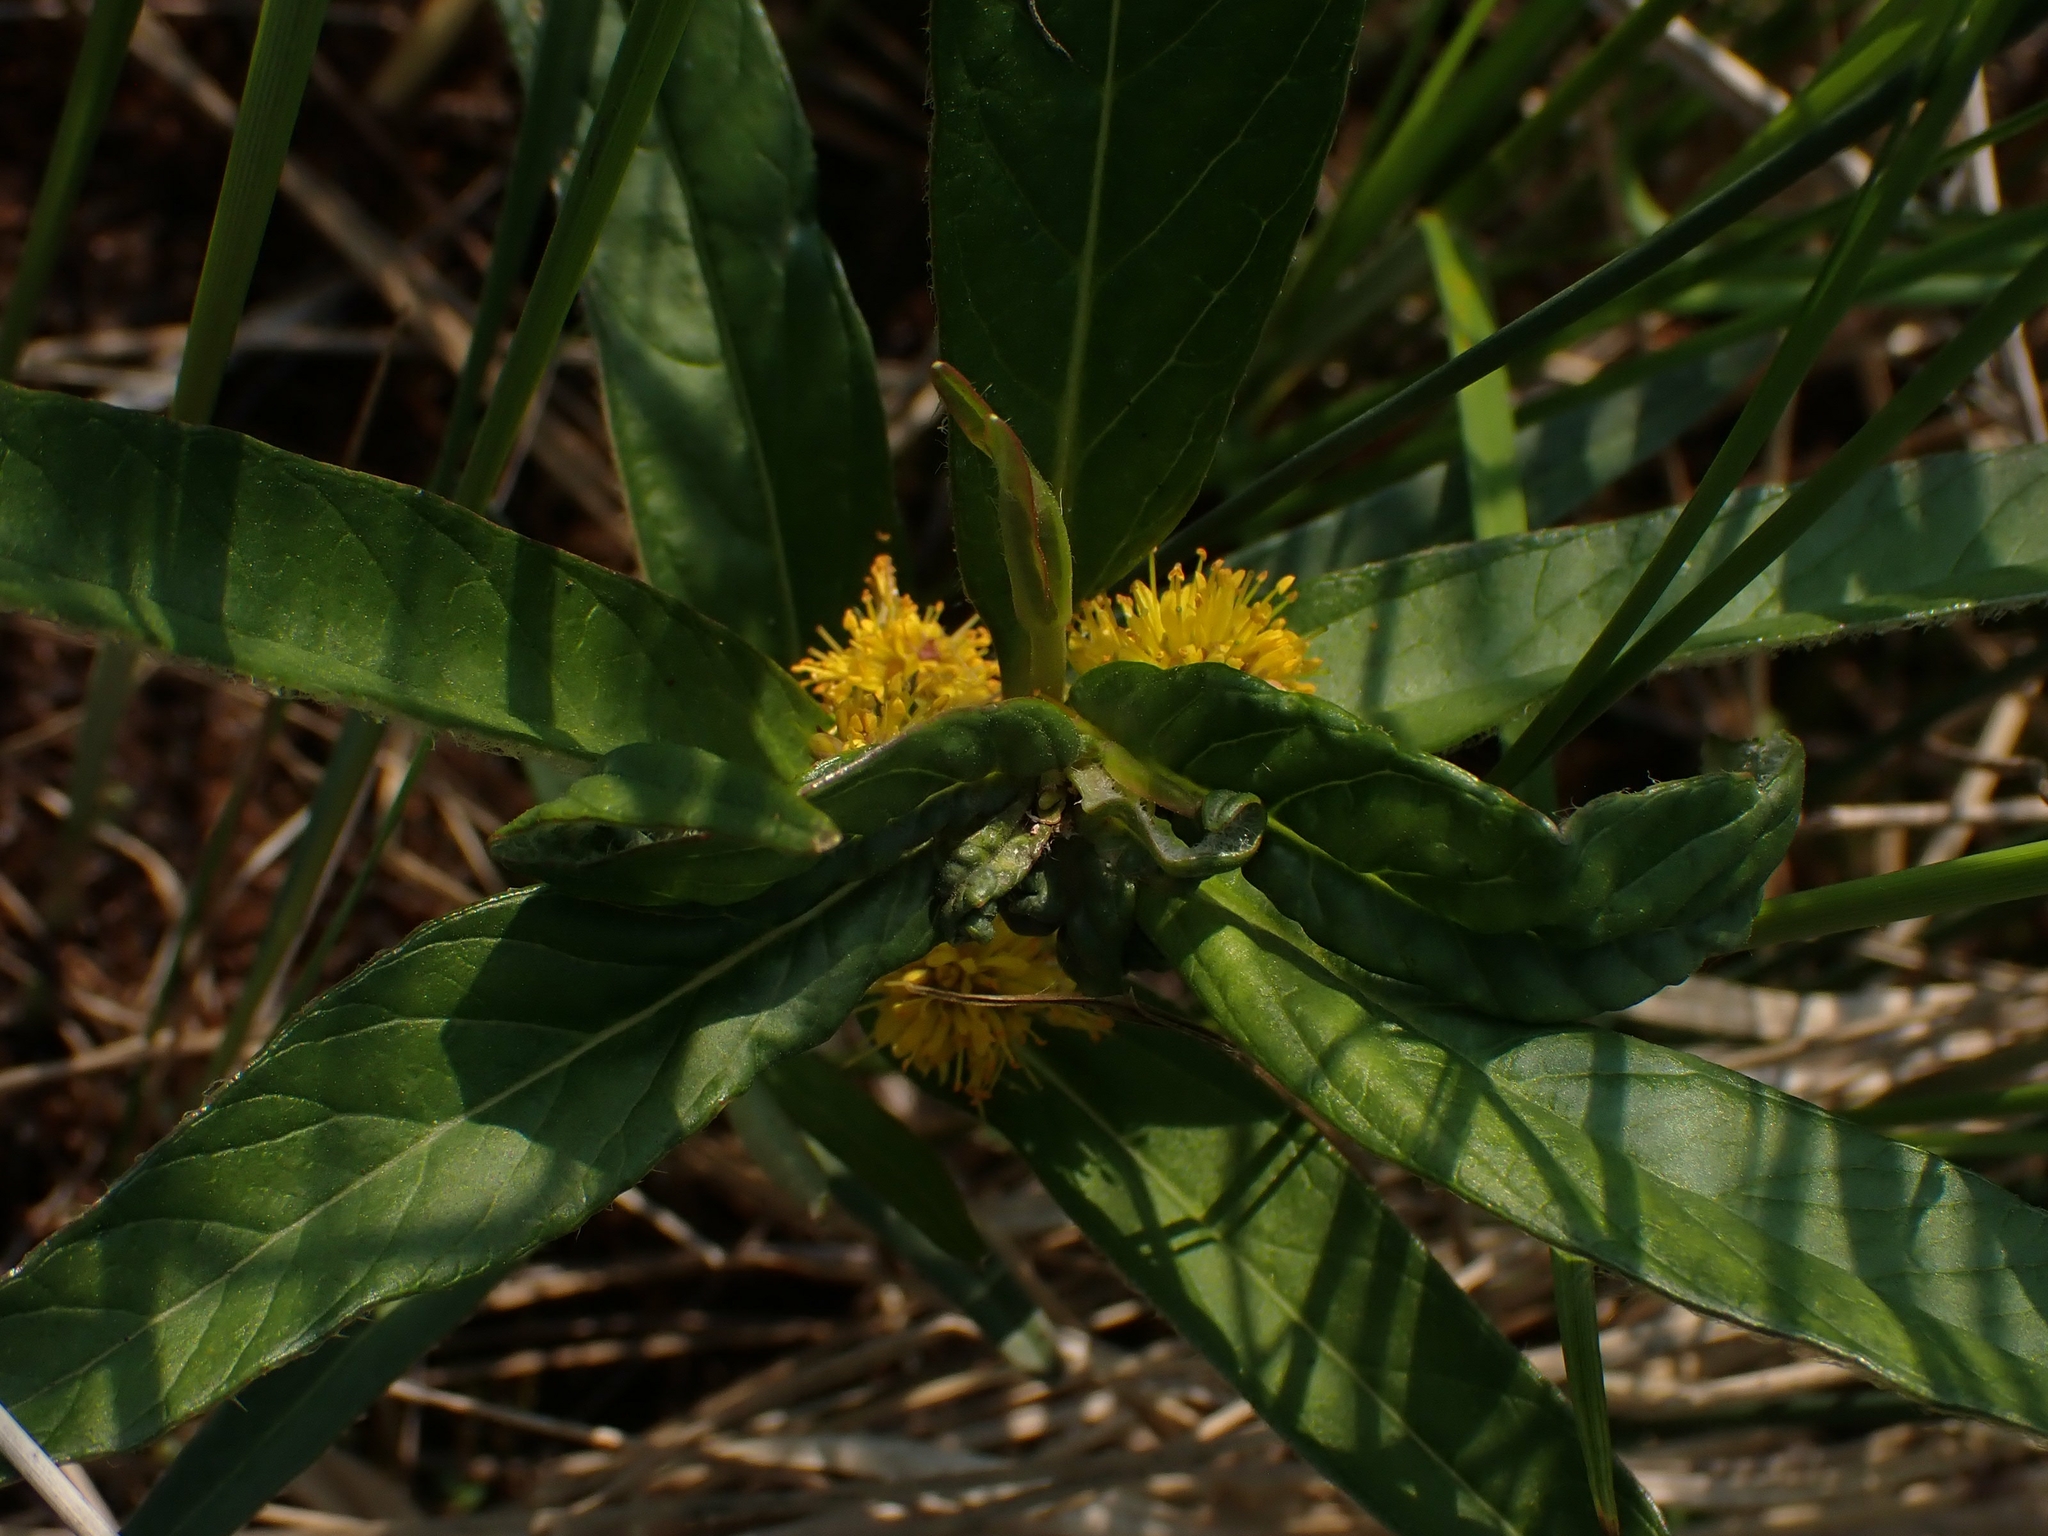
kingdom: Plantae
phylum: Tracheophyta
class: Magnoliopsida
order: Ericales
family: Primulaceae
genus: Lysimachia
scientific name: Lysimachia thyrsiflora
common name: Tufted loosestrife
